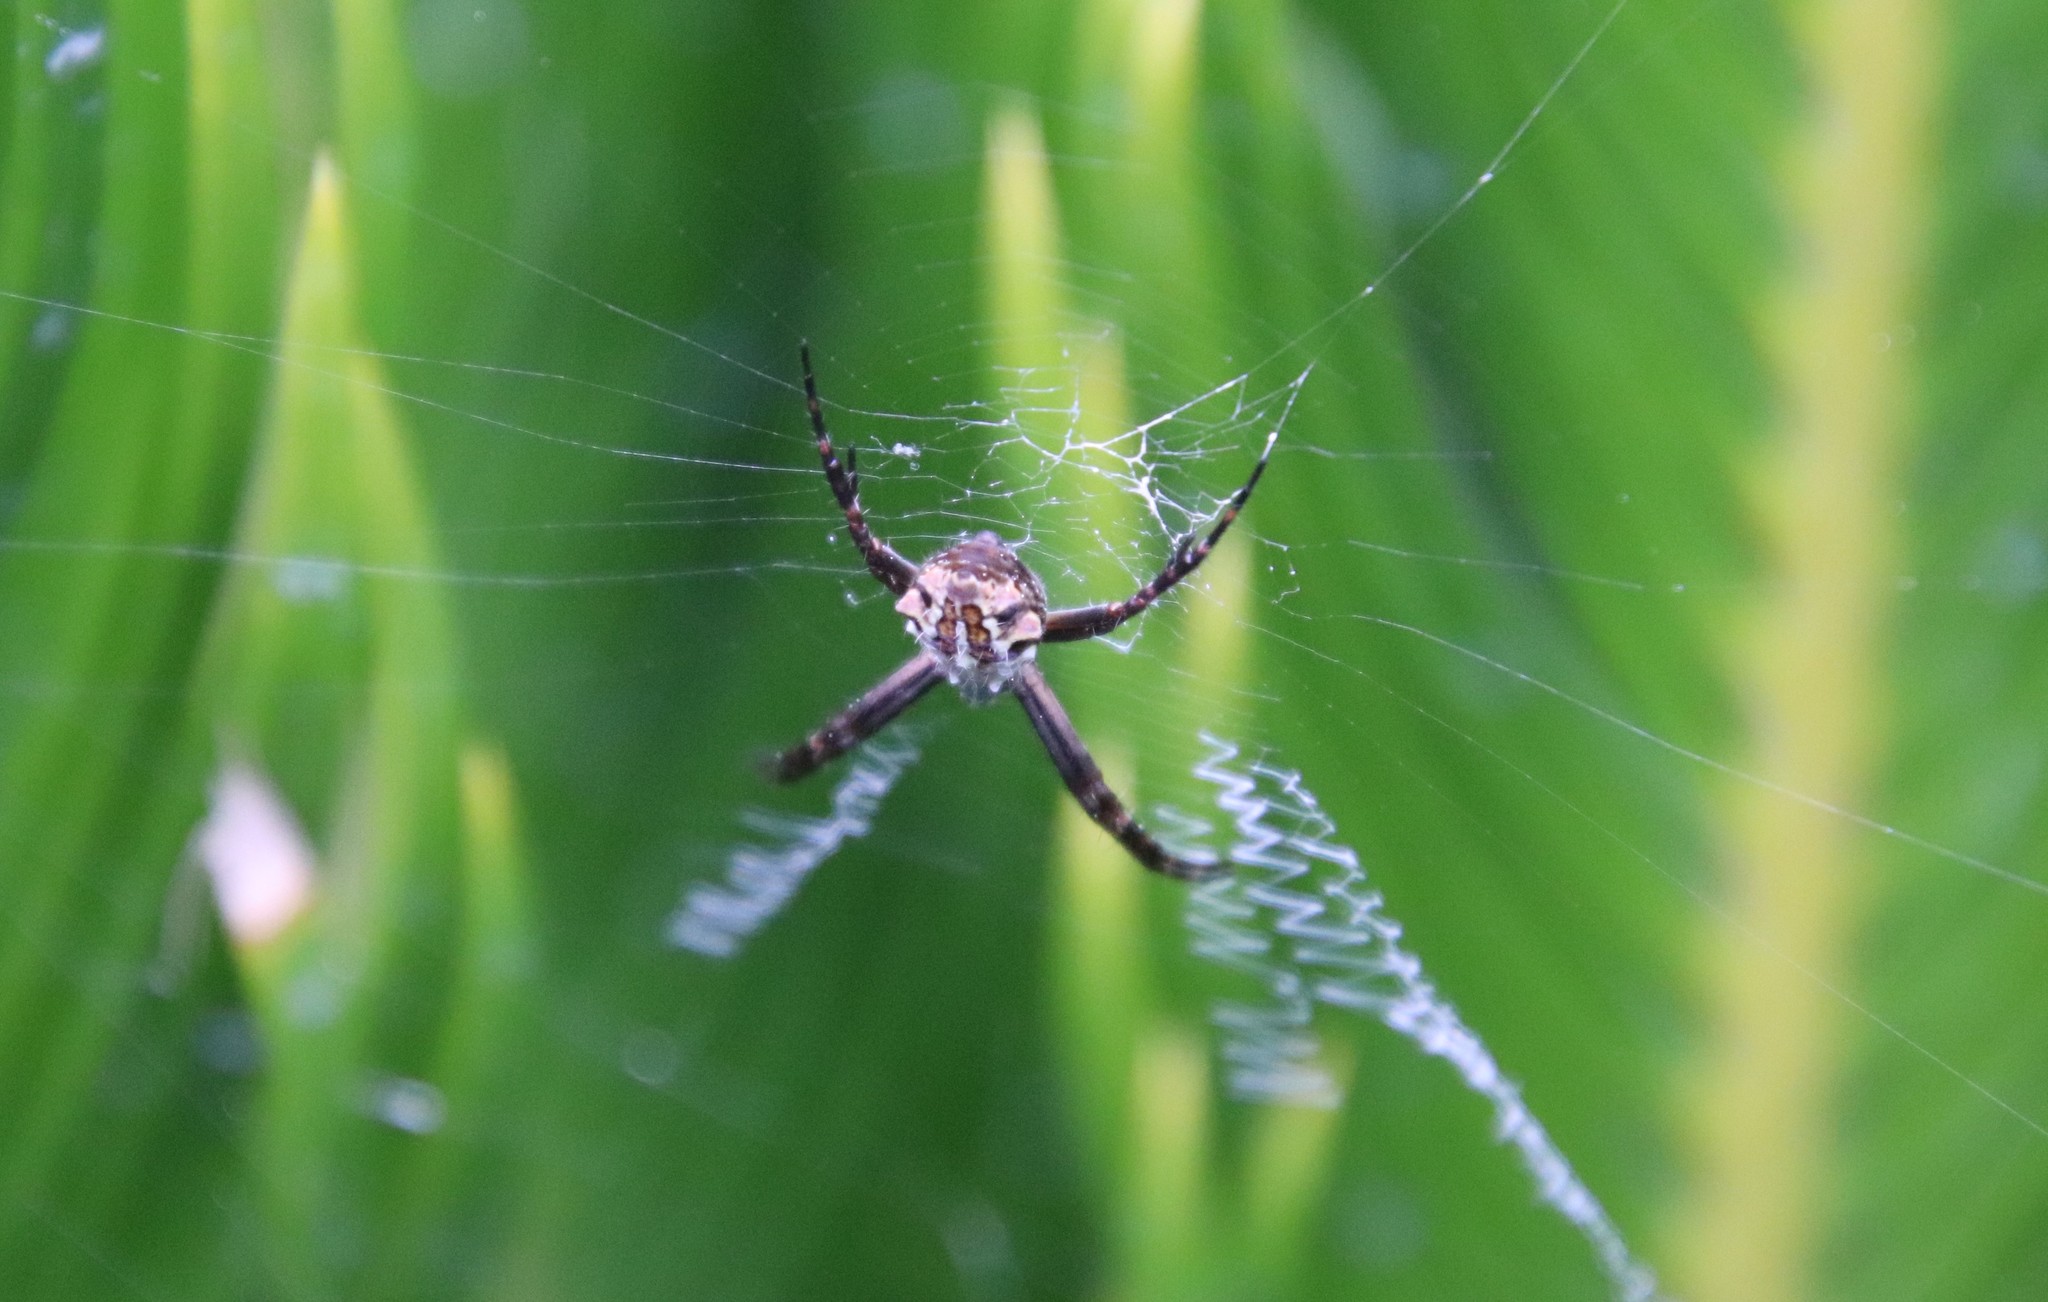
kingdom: Animalia
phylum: Arthropoda
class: Arachnida
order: Araneae
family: Araneidae
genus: Argiope
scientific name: Argiope argentata
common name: Orb weavers
